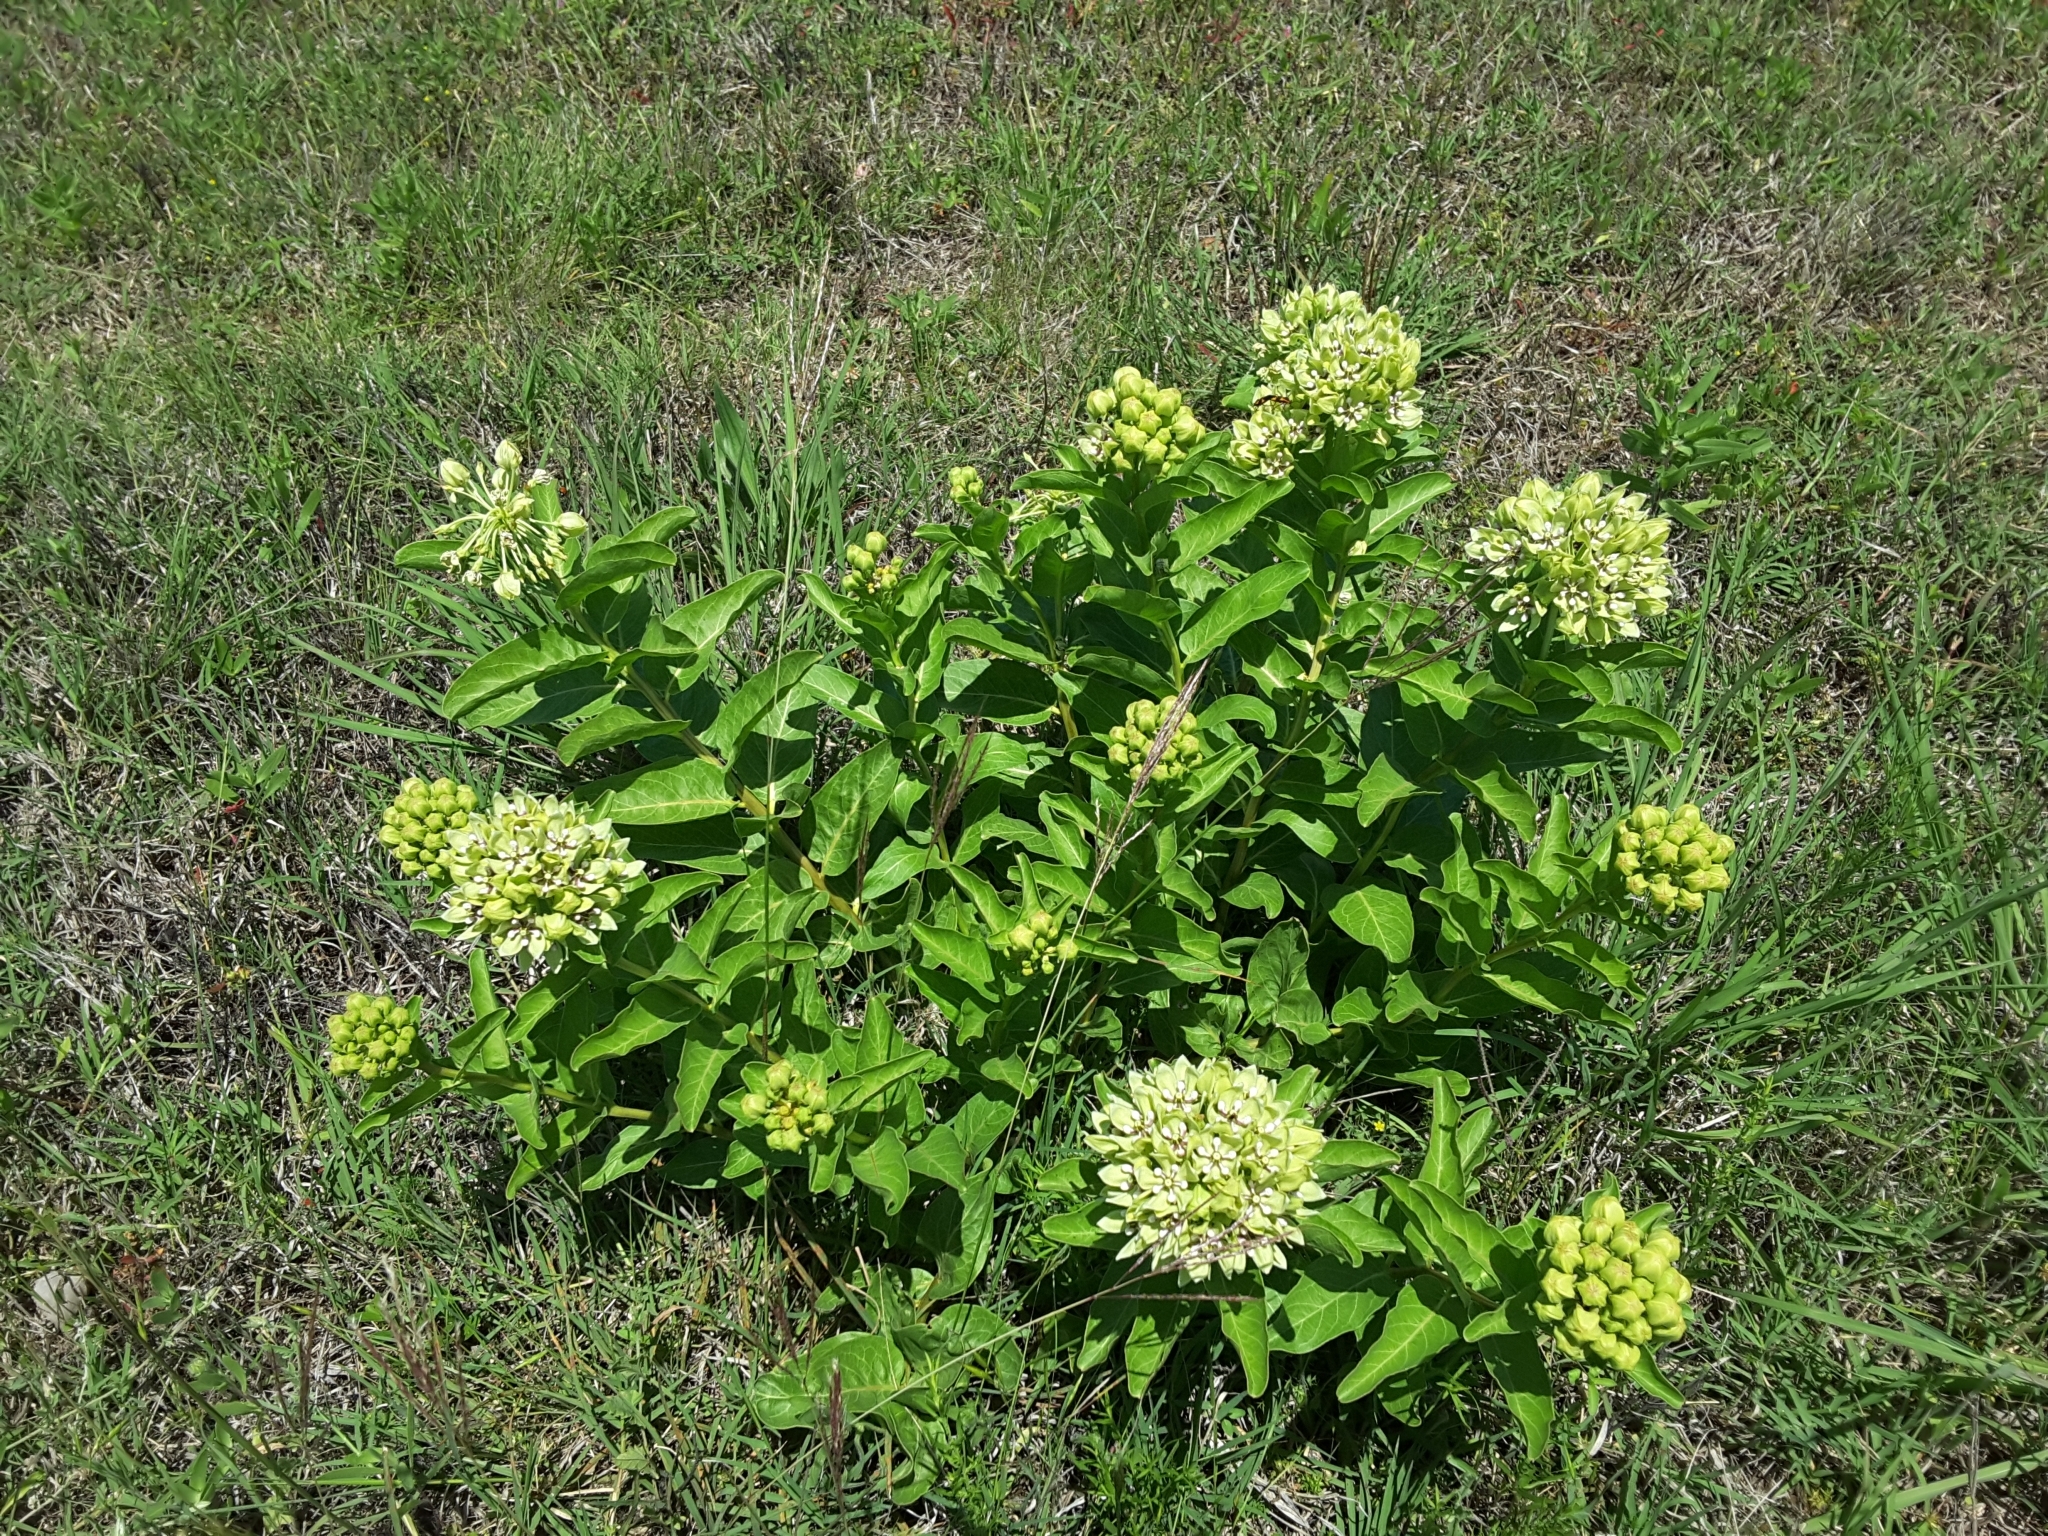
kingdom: Plantae
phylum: Tracheophyta
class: Magnoliopsida
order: Gentianales
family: Apocynaceae
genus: Asclepias
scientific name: Asclepias viridis
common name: Antelope-horns
